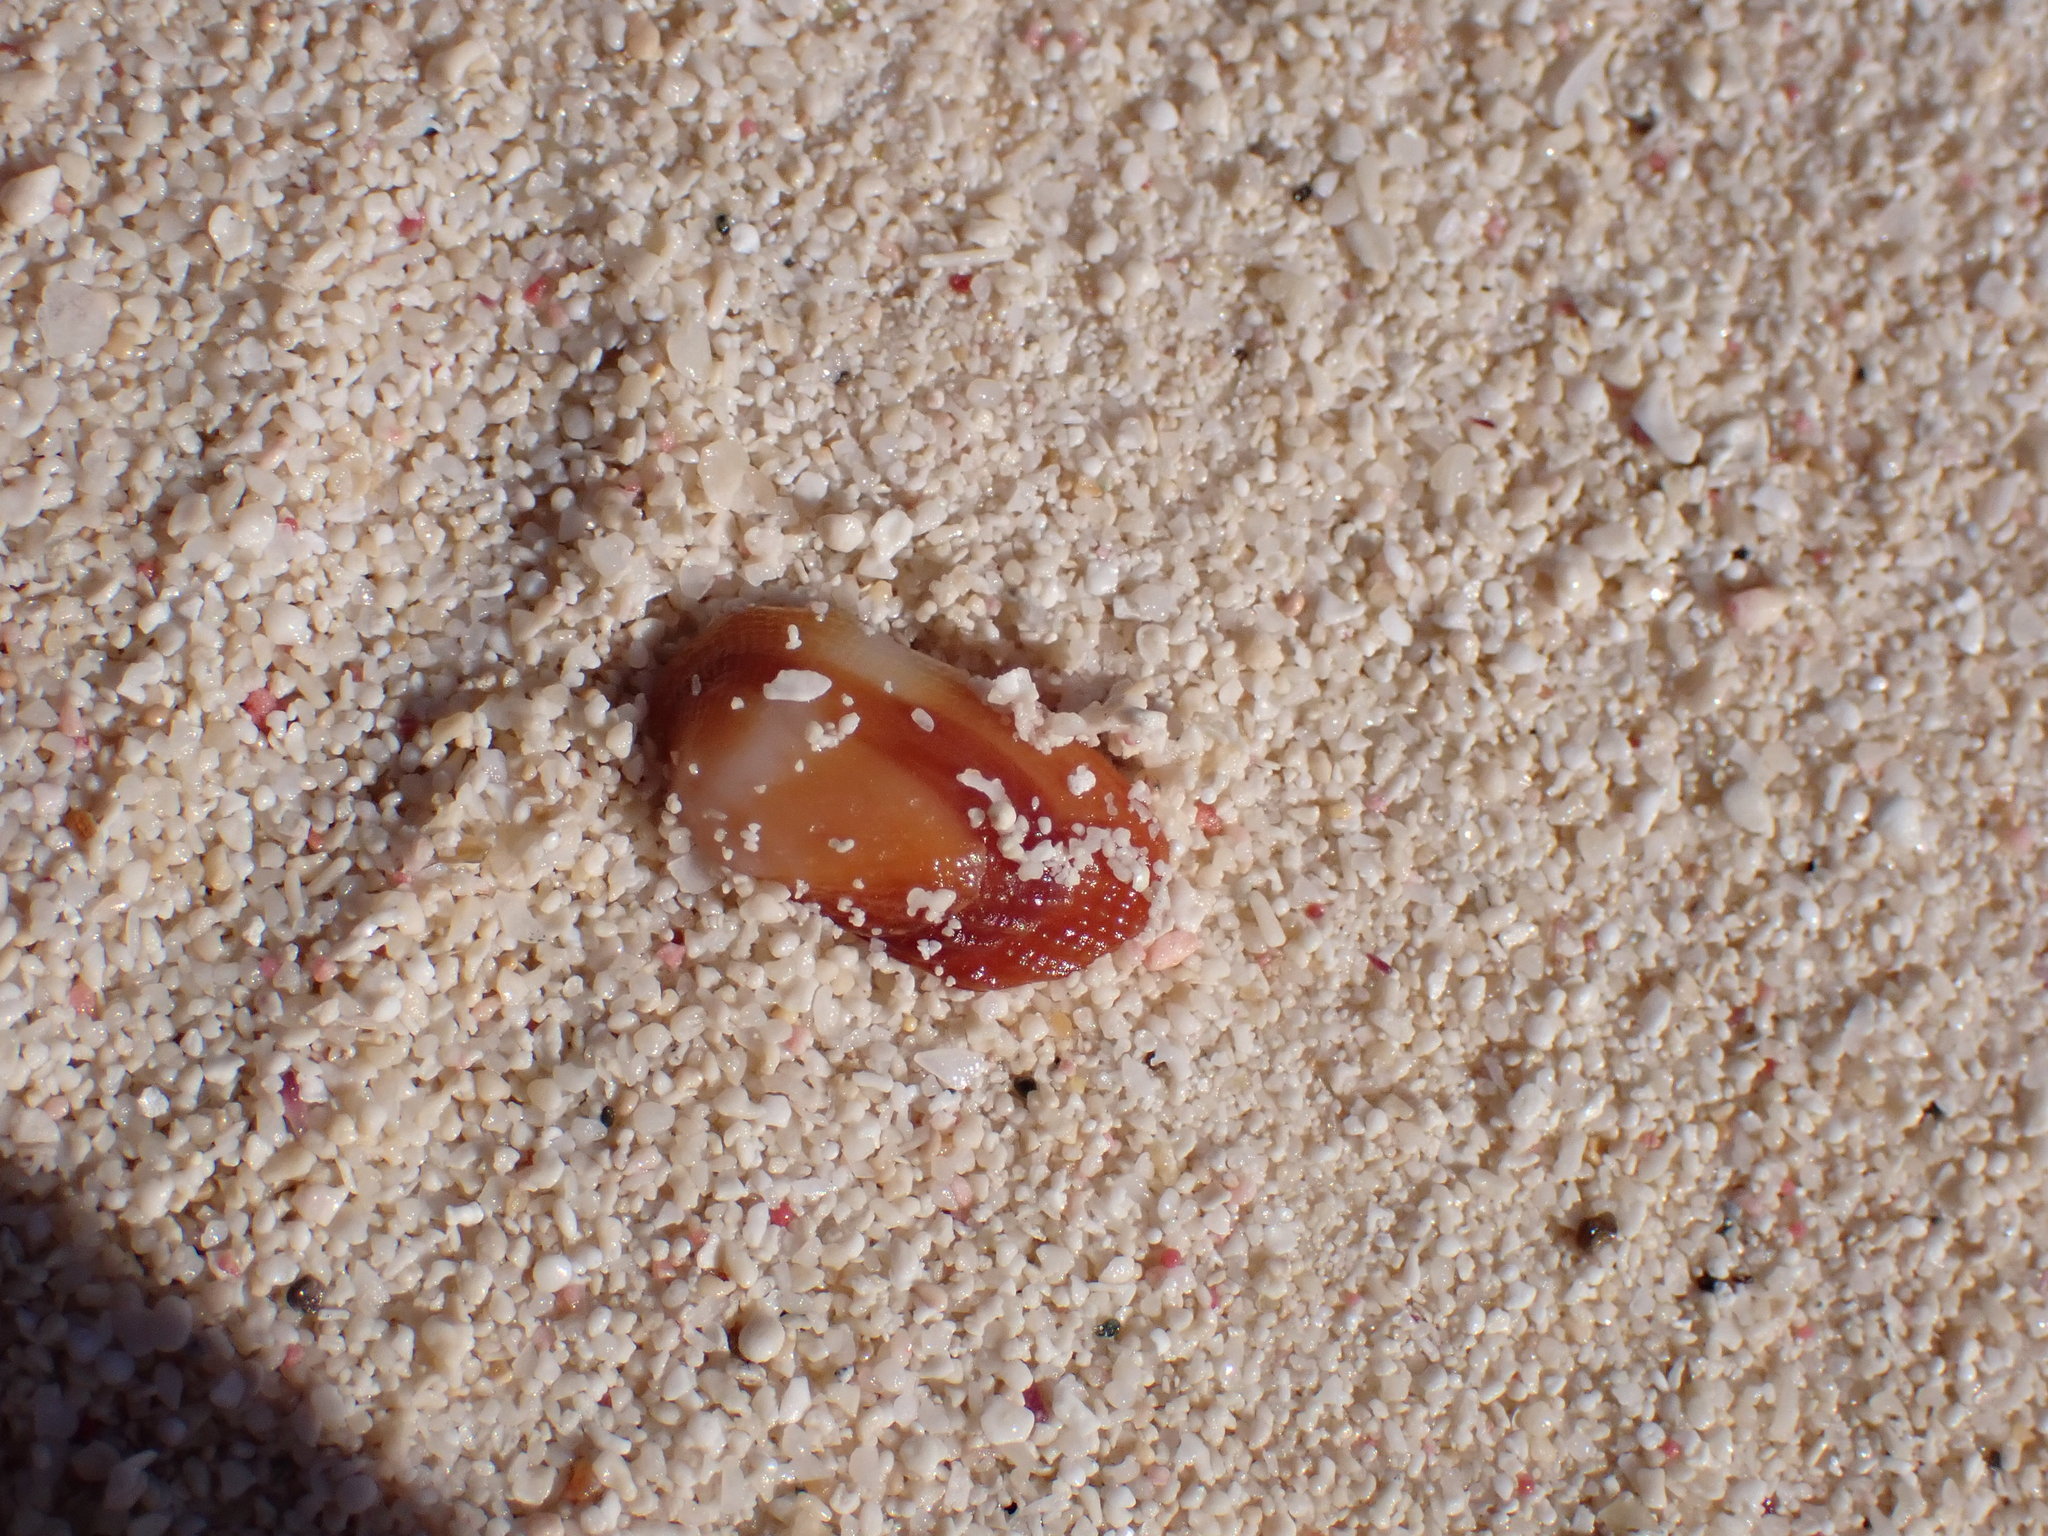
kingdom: Animalia
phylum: Mollusca
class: Bivalvia
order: Arcida
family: Arcidae
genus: Barbatia
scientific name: Barbatia domingensis
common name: White miniature ark
